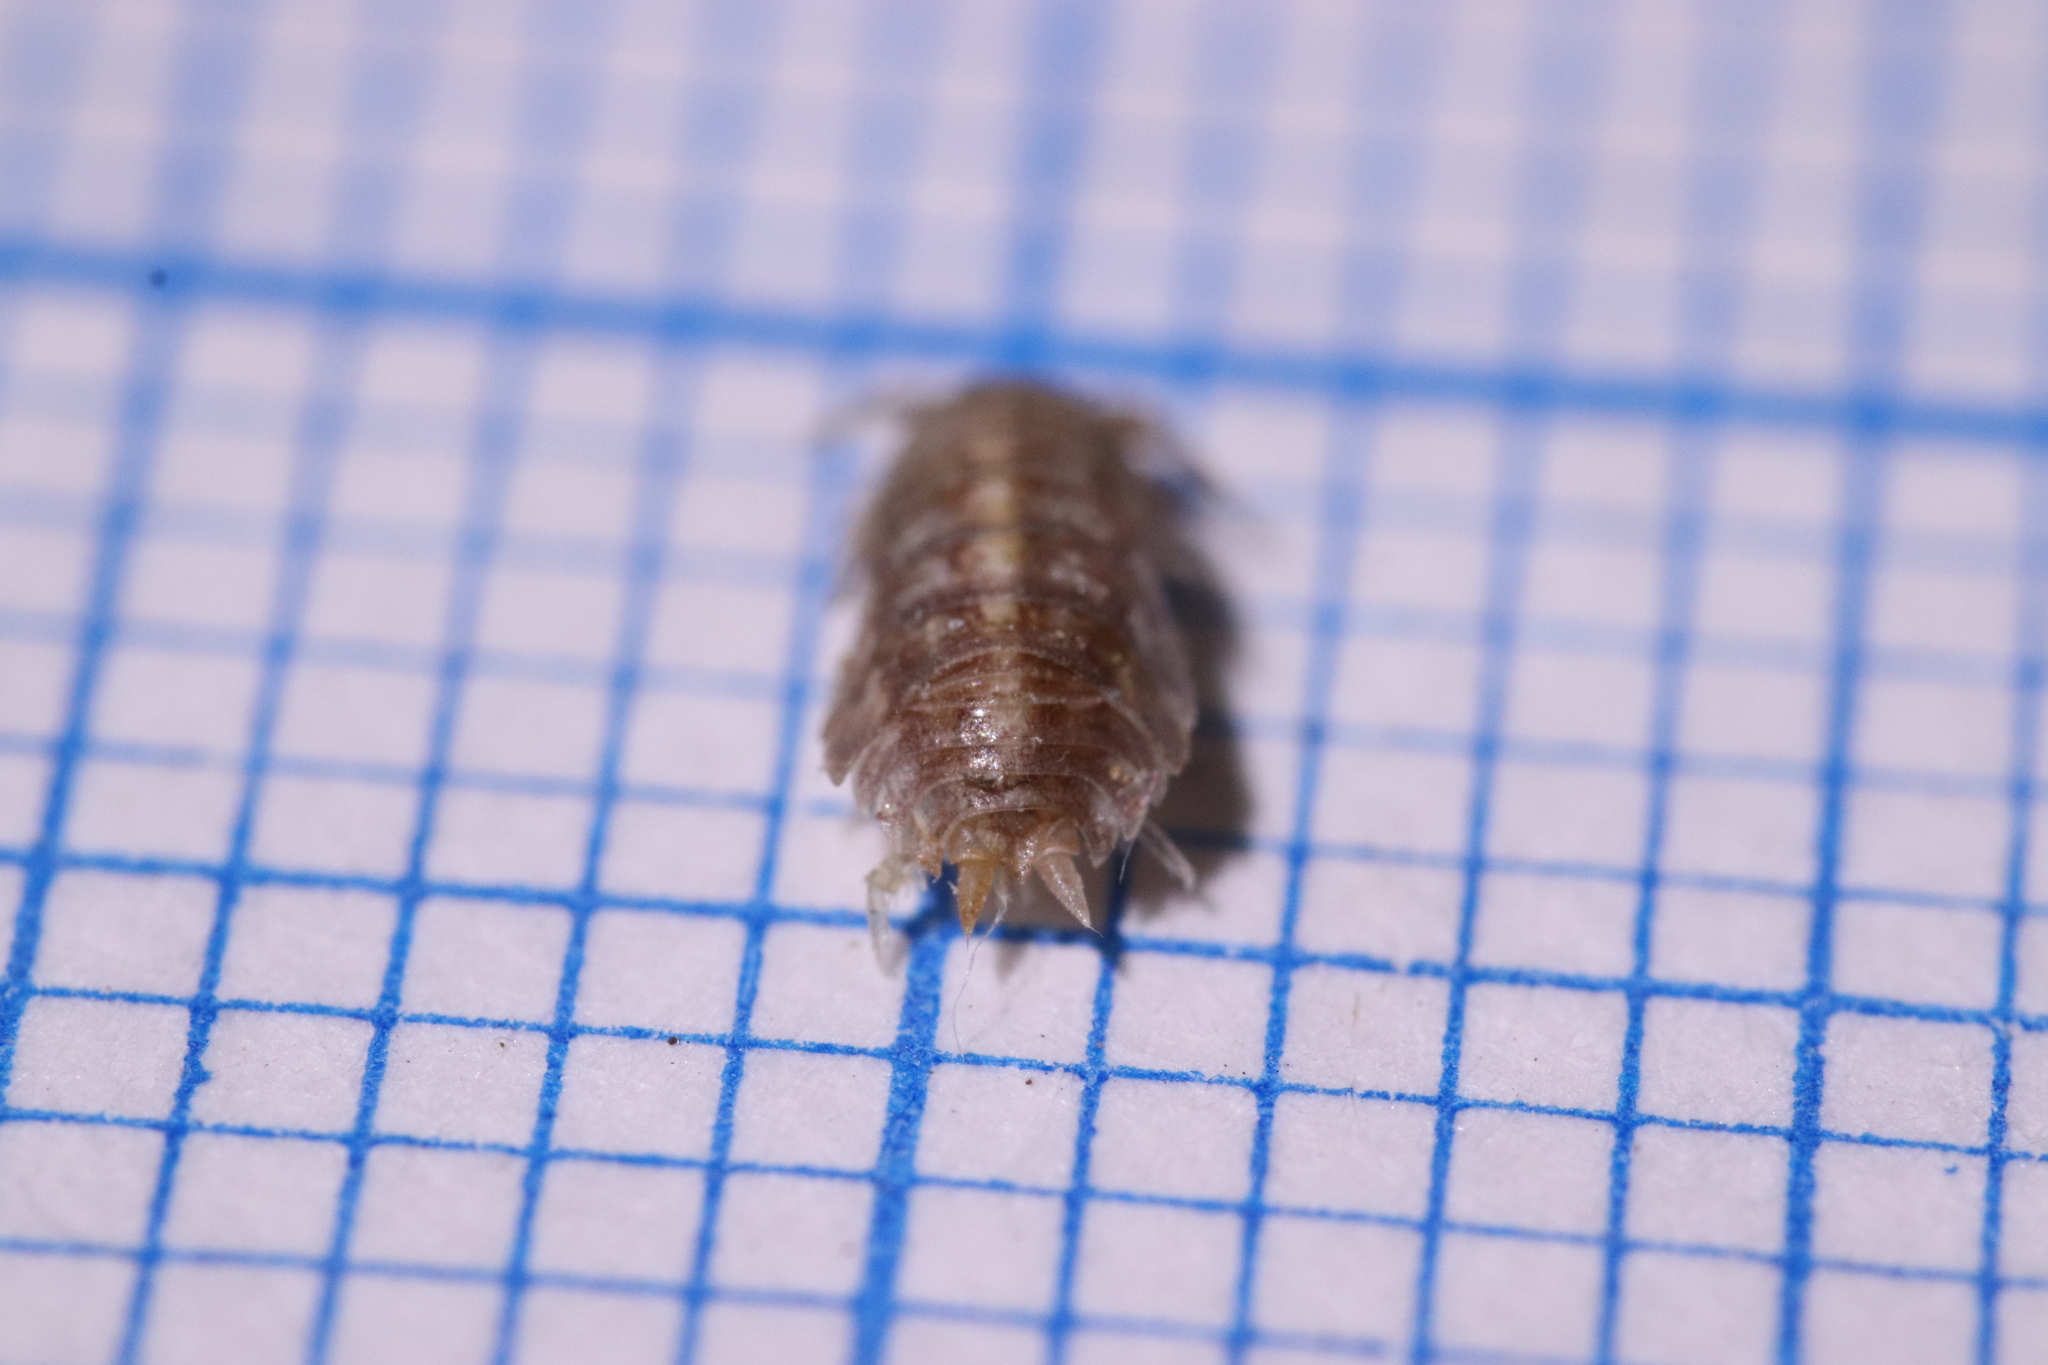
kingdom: Animalia
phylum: Arthropoda
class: Malacostraca
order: Isopoda
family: Porcellionidae
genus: Lucasius
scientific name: Lucasius pallidus
